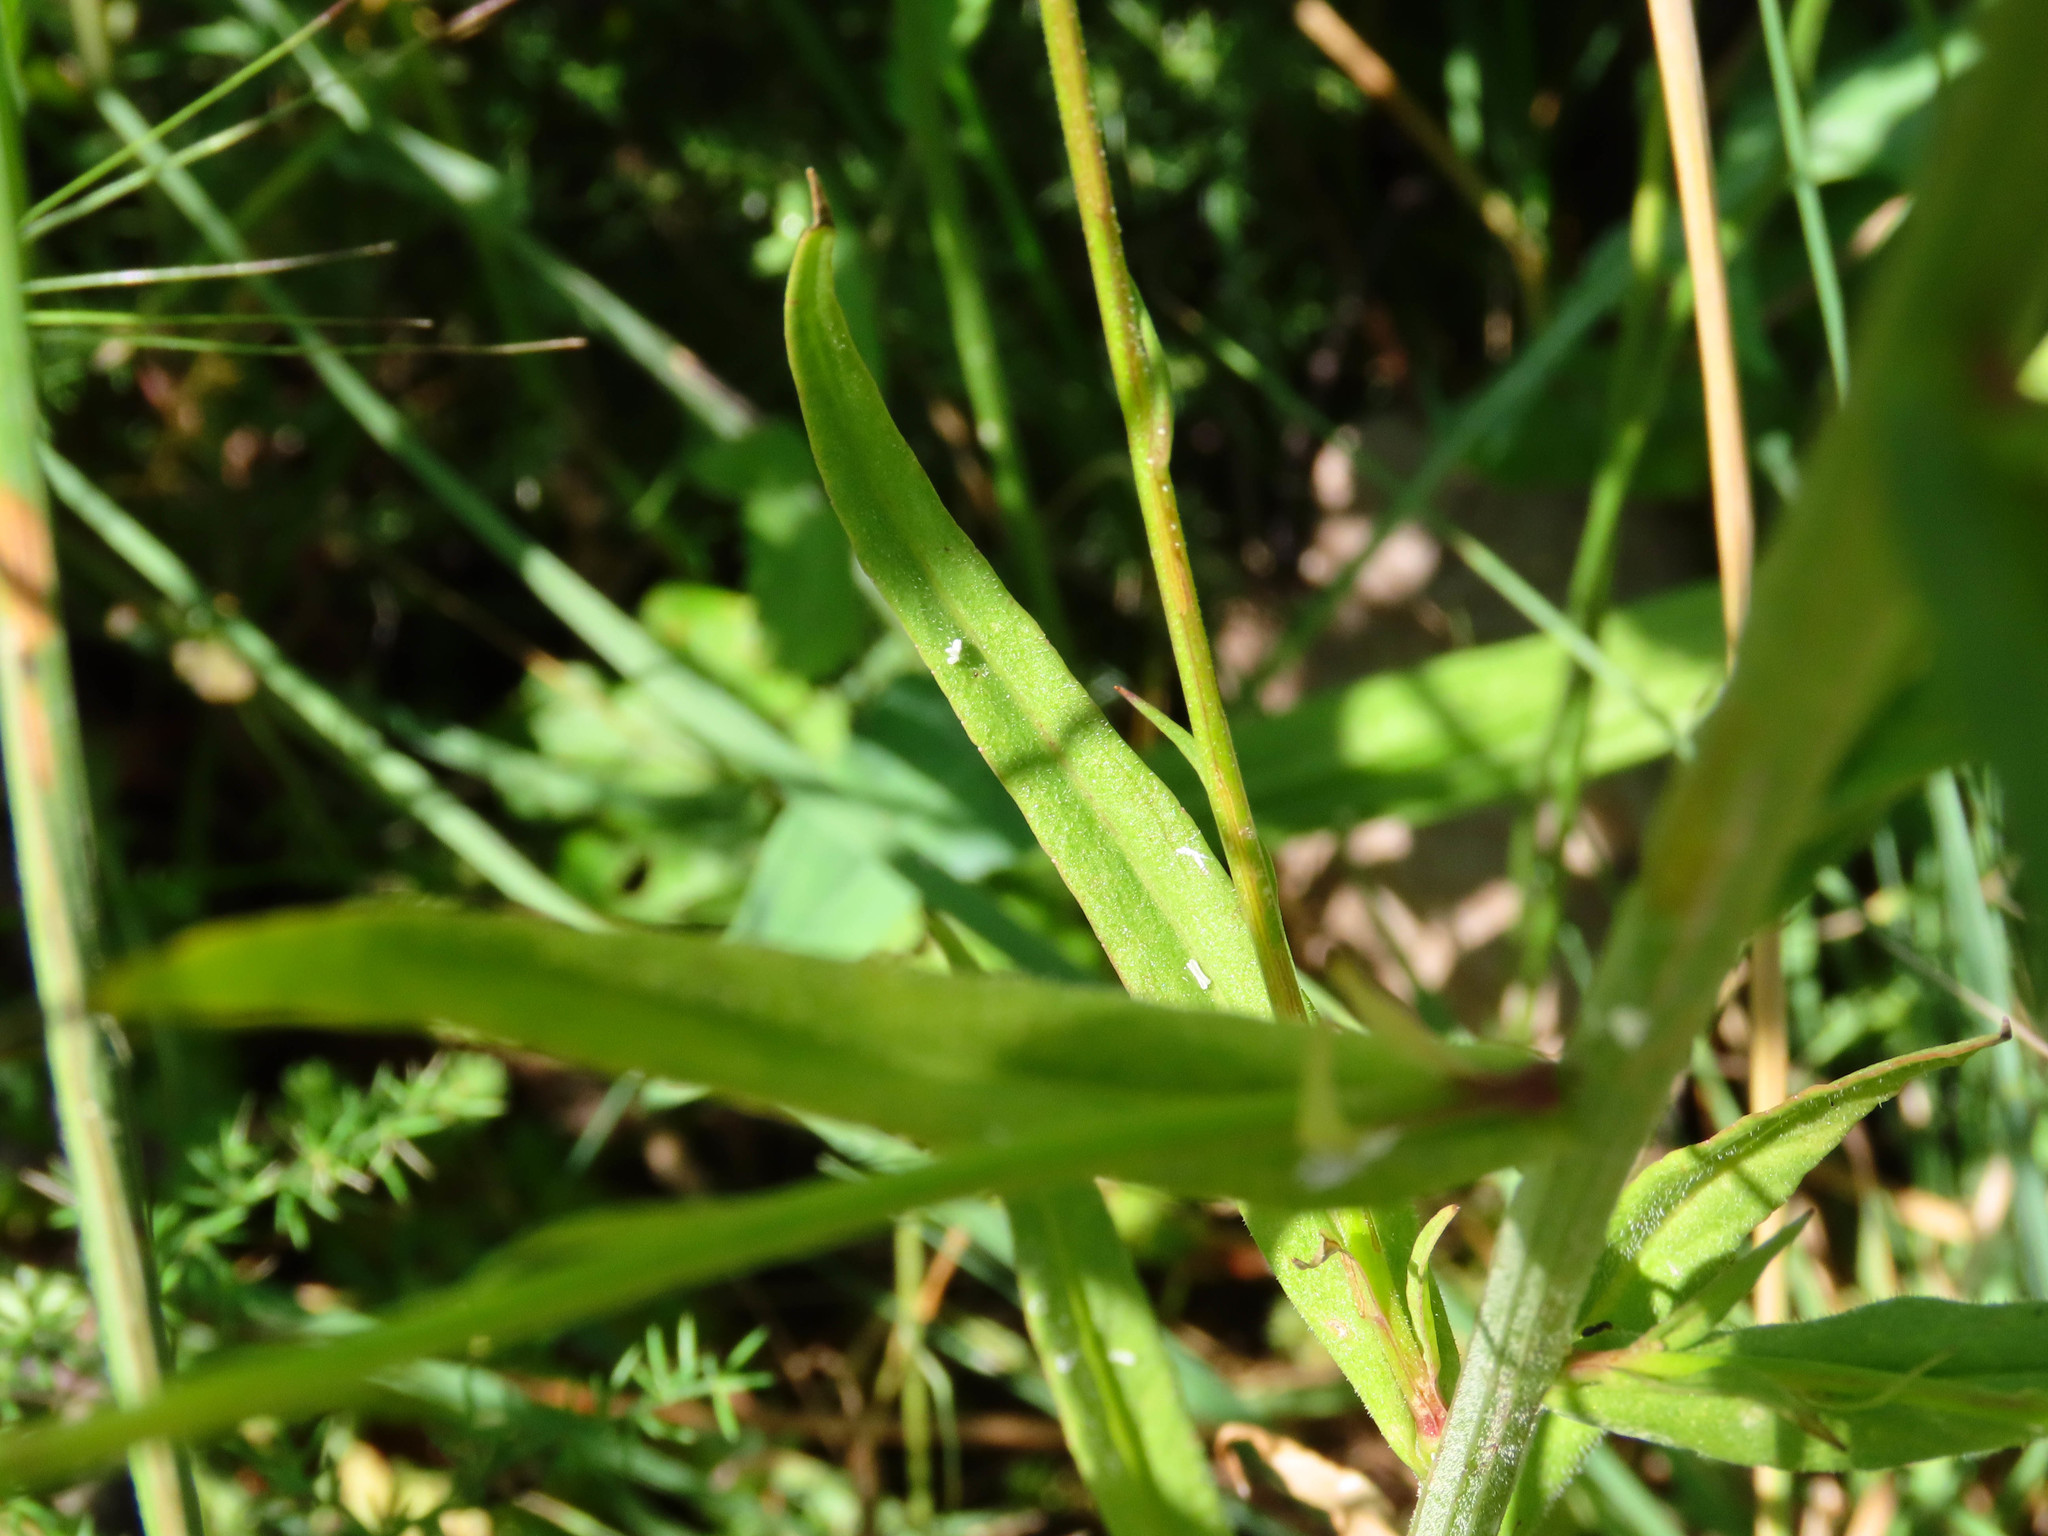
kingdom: Plantae
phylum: Tracheophyta
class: Magnoliopsida
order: Asterales
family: Campanulaceae
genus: Campanula
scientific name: Campanula rapunculus
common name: Rampion bellflower
